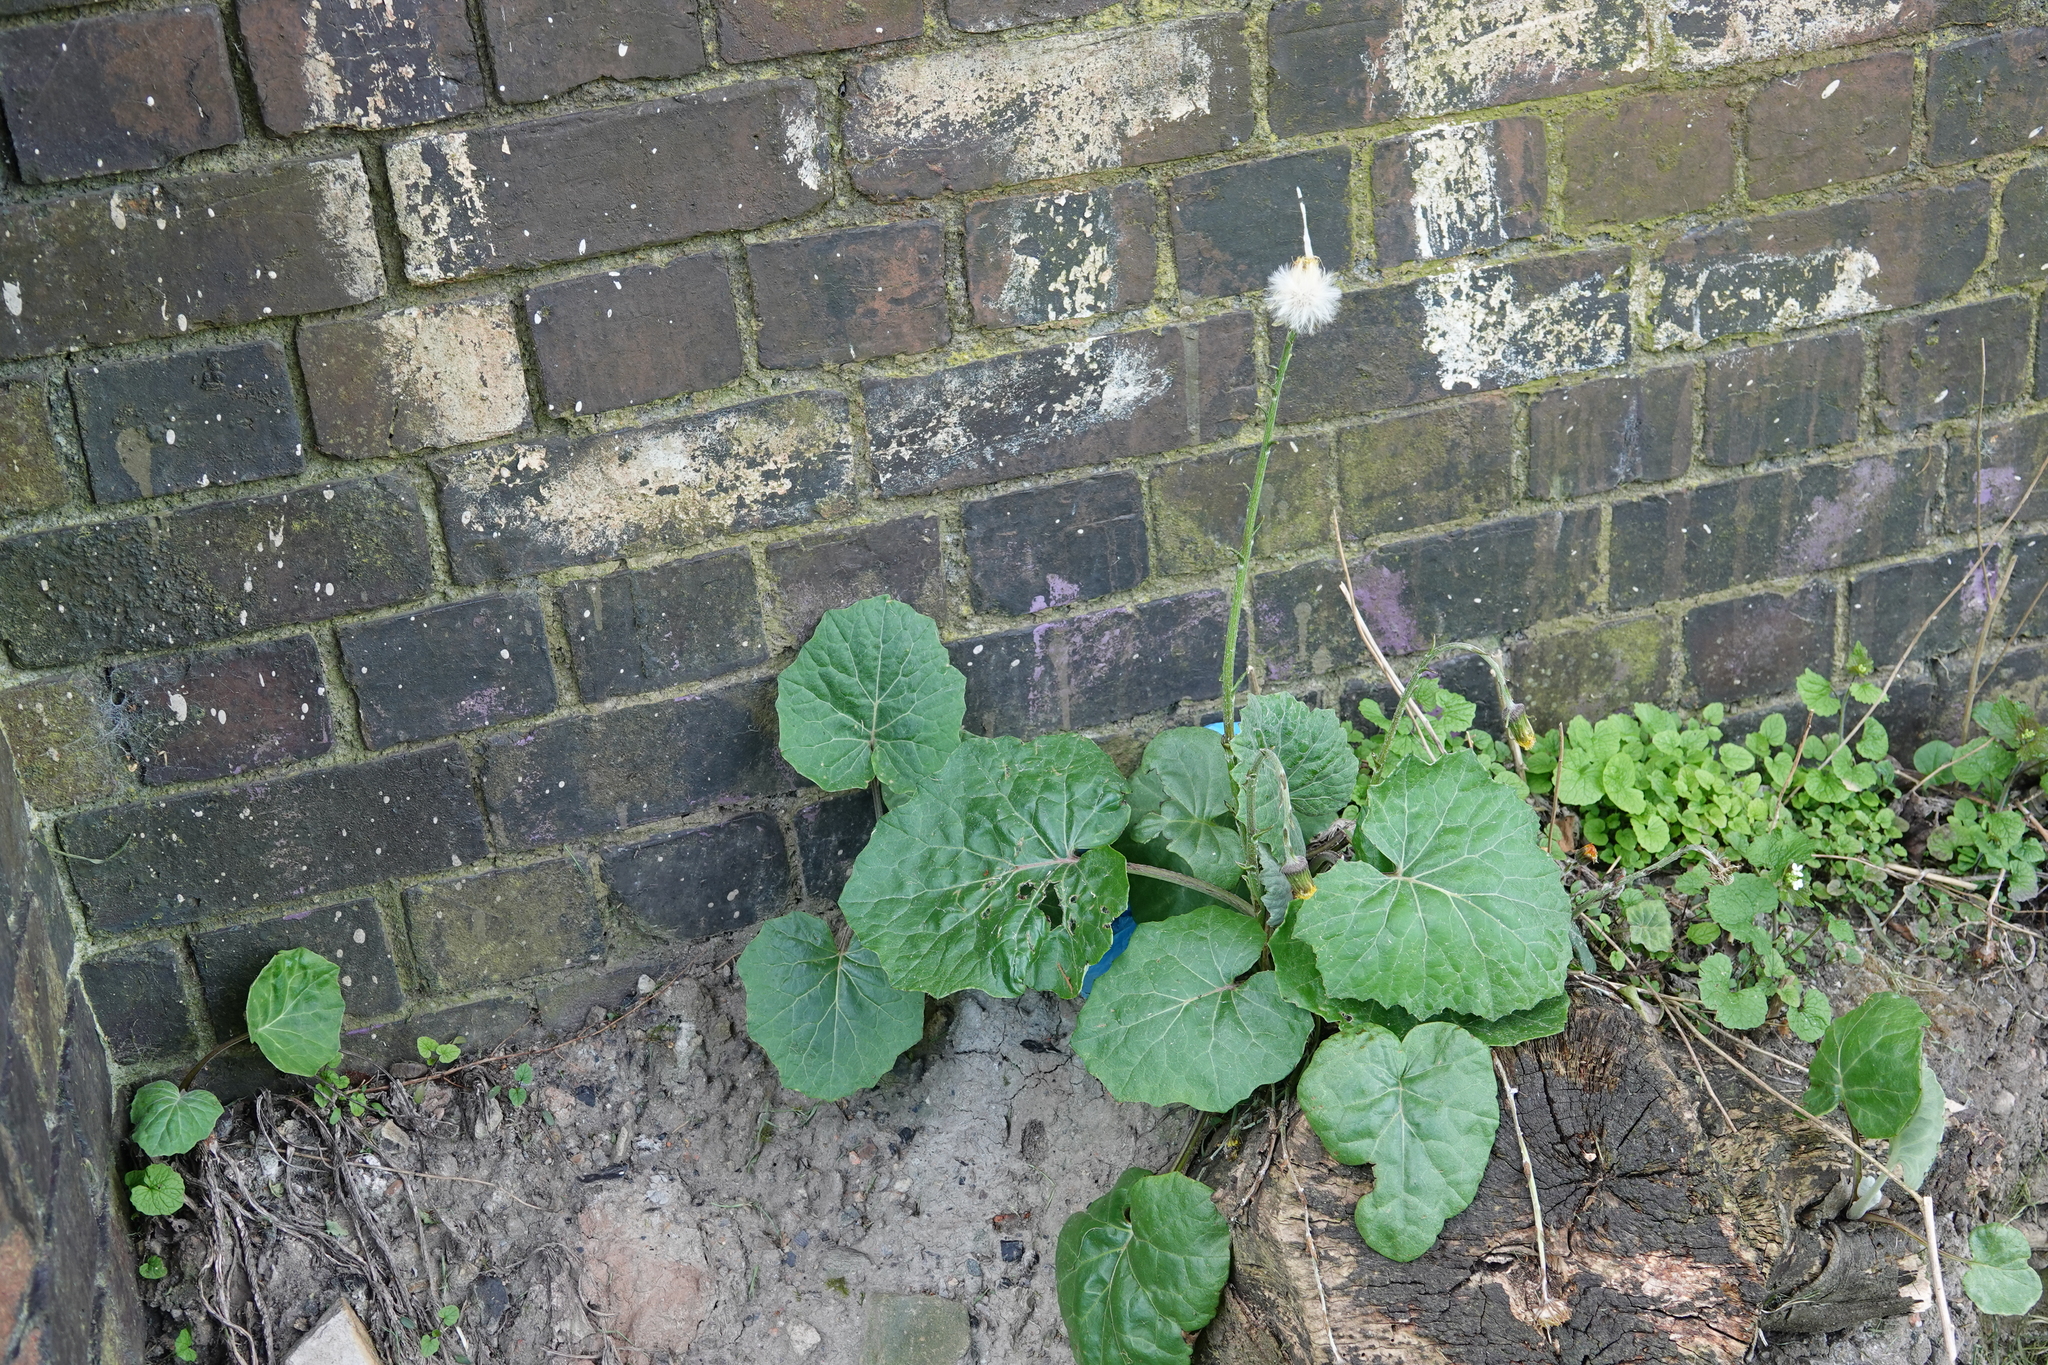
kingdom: Plantae
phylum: Tracheophyta
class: Magnoliopsida
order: Asterales
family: Asteraceae
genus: Tussilago
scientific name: Tussilago farfara
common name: Coltsfoot
